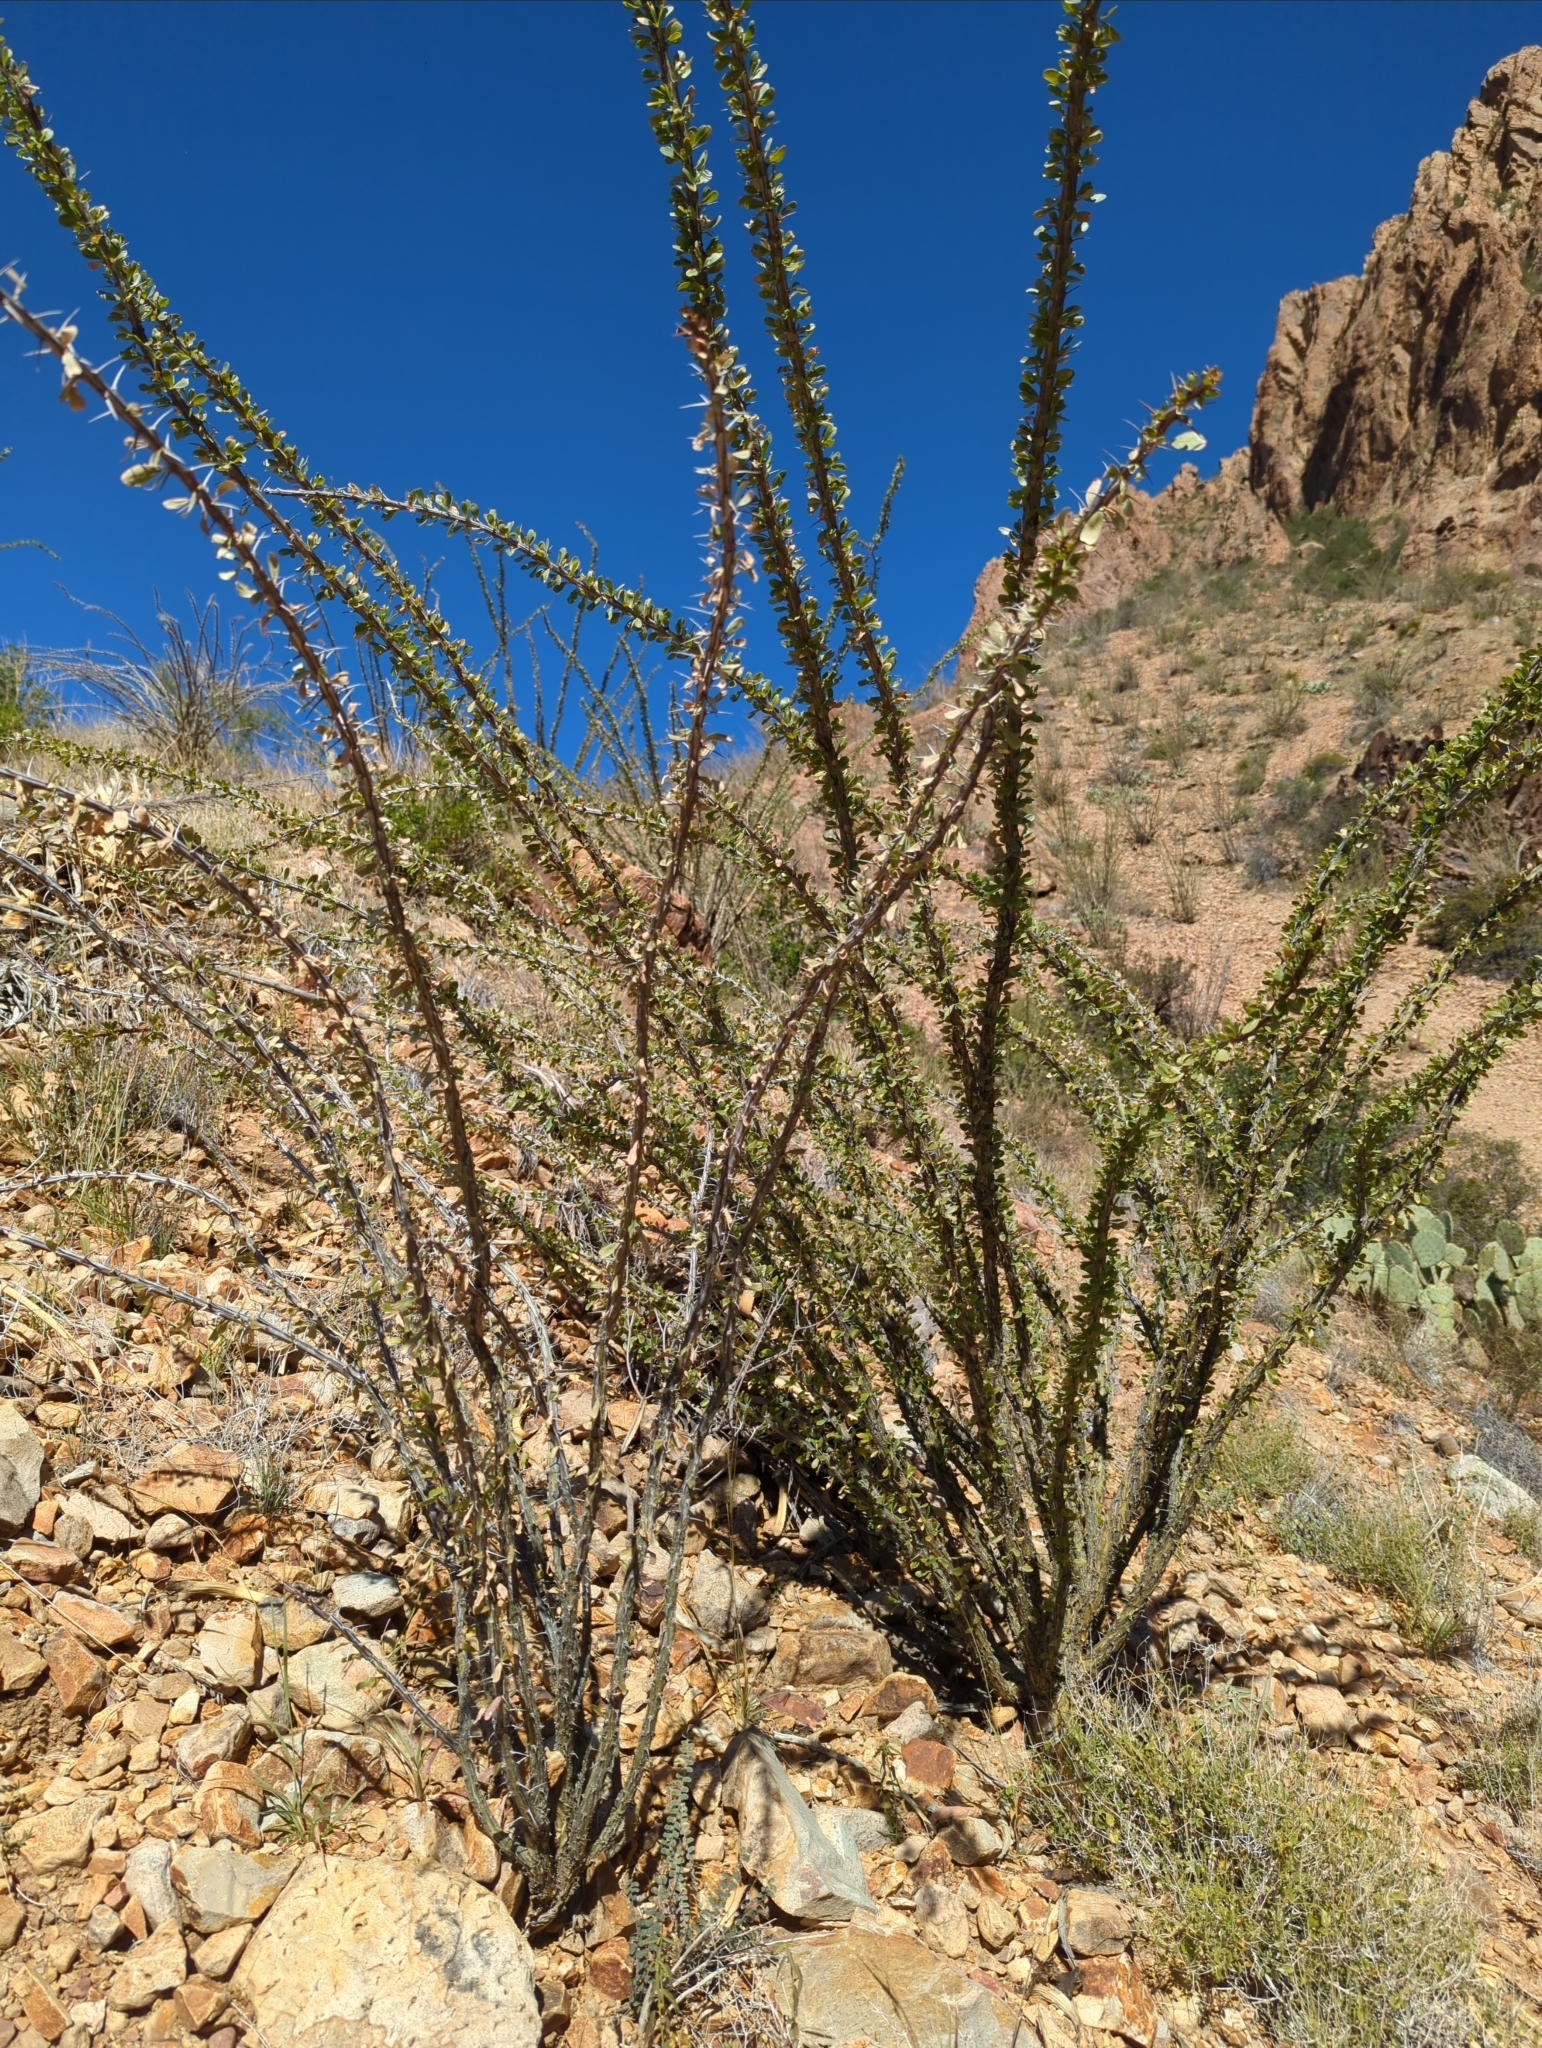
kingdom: Plantae
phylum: Tracheophyta
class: Magnoliopsida
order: Ericales
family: Fouquieriaceae
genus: Fouquieria
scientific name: Fouquieria splendens
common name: Vine-cactus
